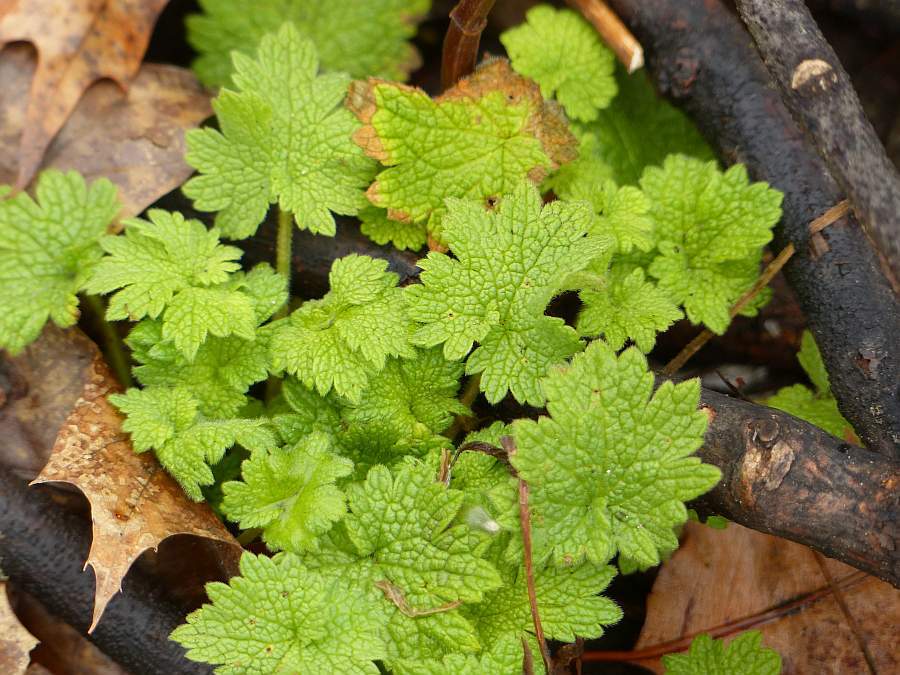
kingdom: Plantae
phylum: Tracheophyta
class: Magnoliopsida
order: Lamiales
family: Lamiaceae
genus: Leonurus
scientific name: Leonurus cardiaca
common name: Motherwort
